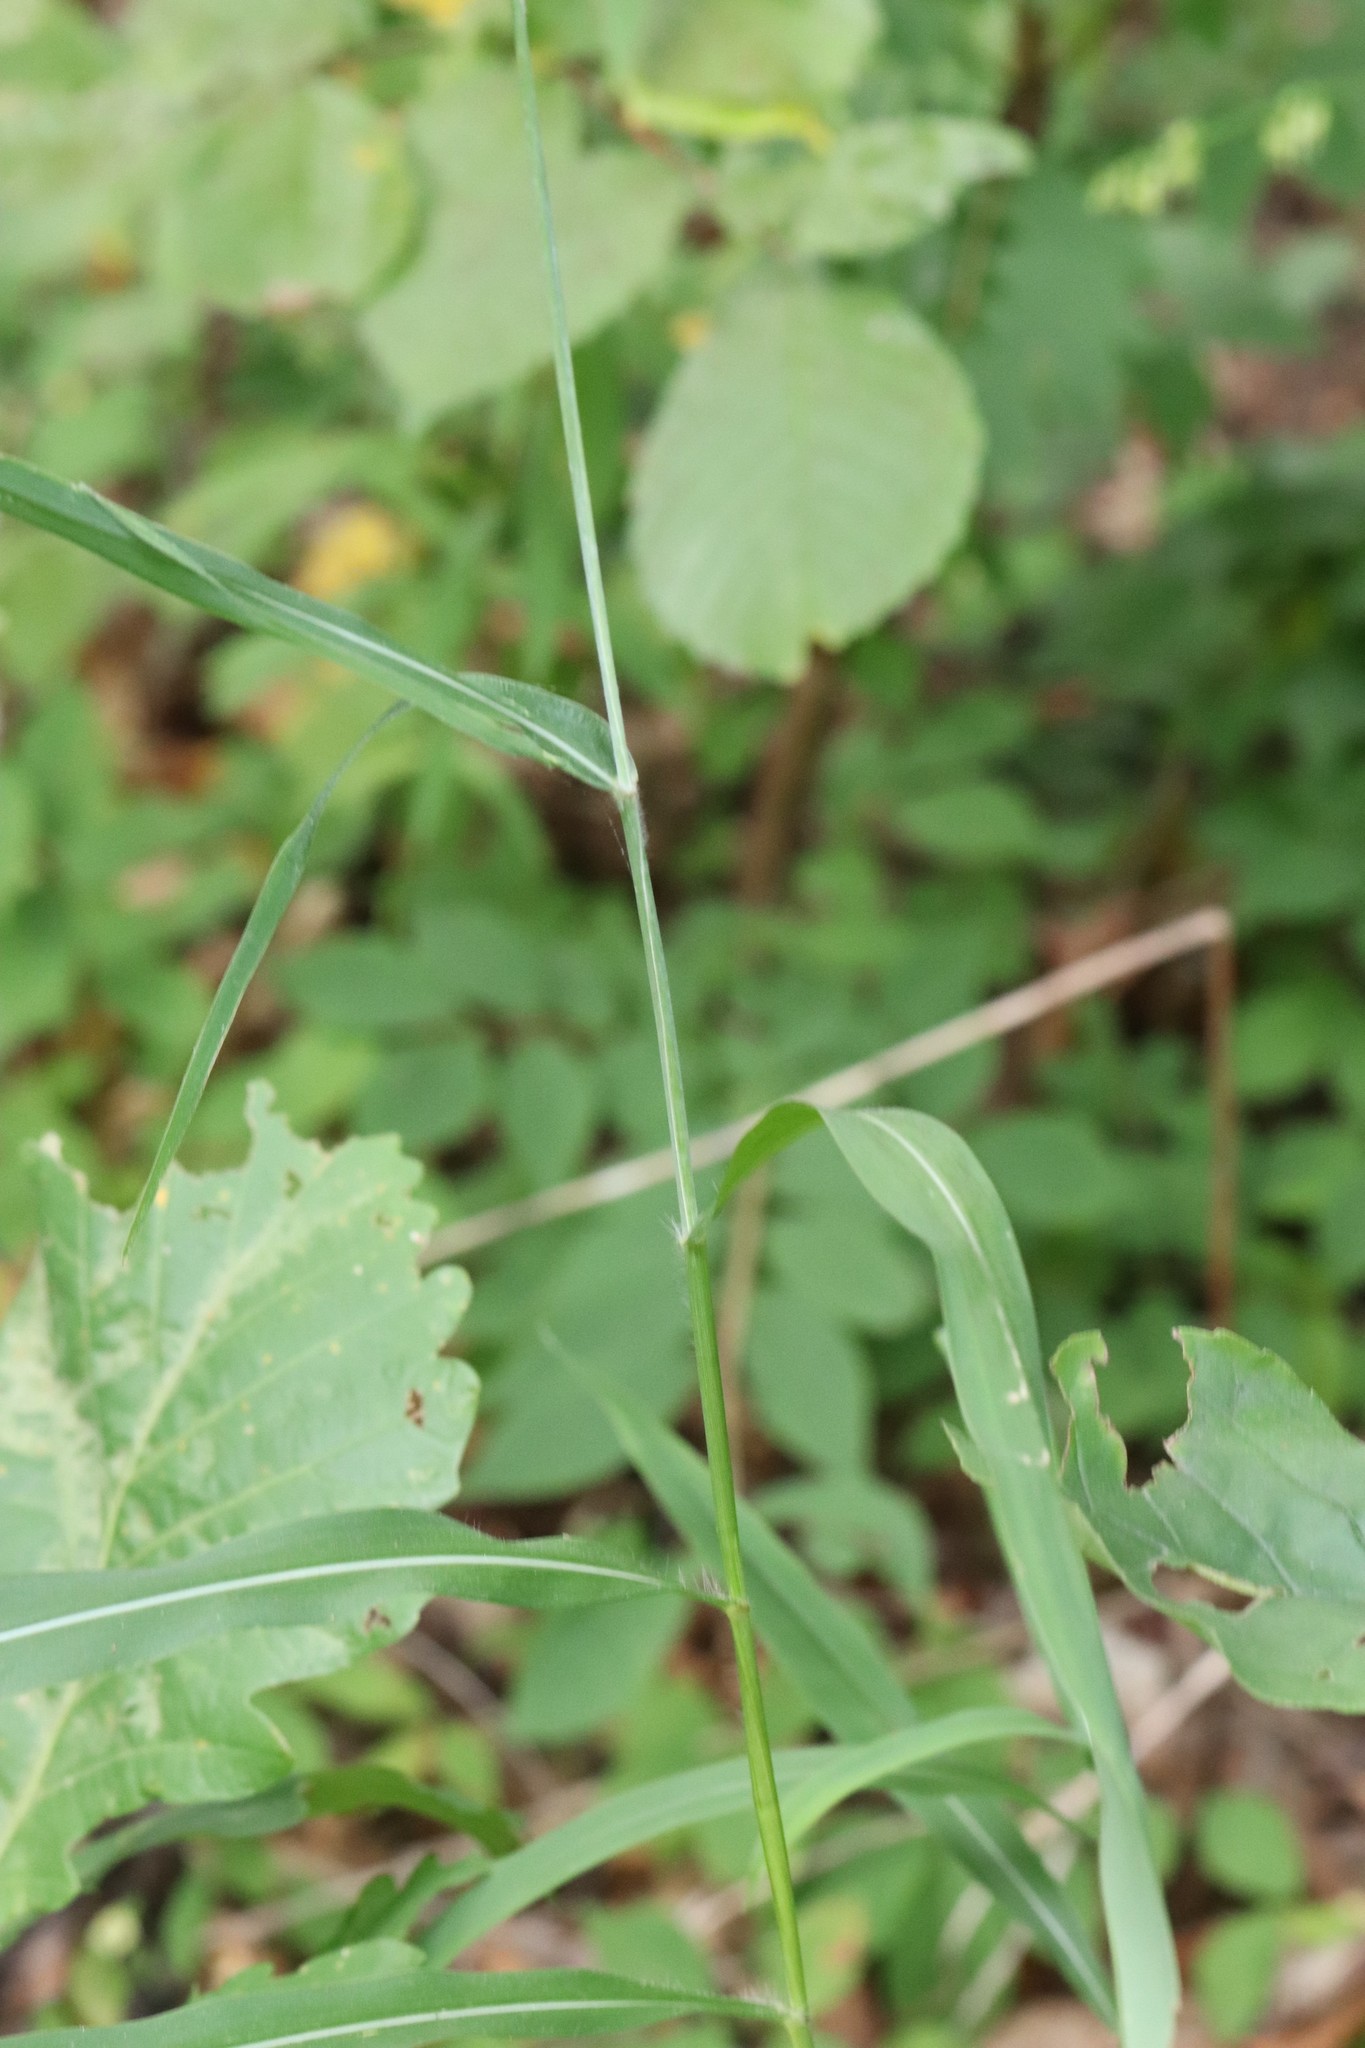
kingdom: Plantae
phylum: Tracheophyta
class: Liliopsida
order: Poales
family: Poaceae
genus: Spodiopogon
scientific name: Spodiopogon sibiricus
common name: Siberian graybeard
